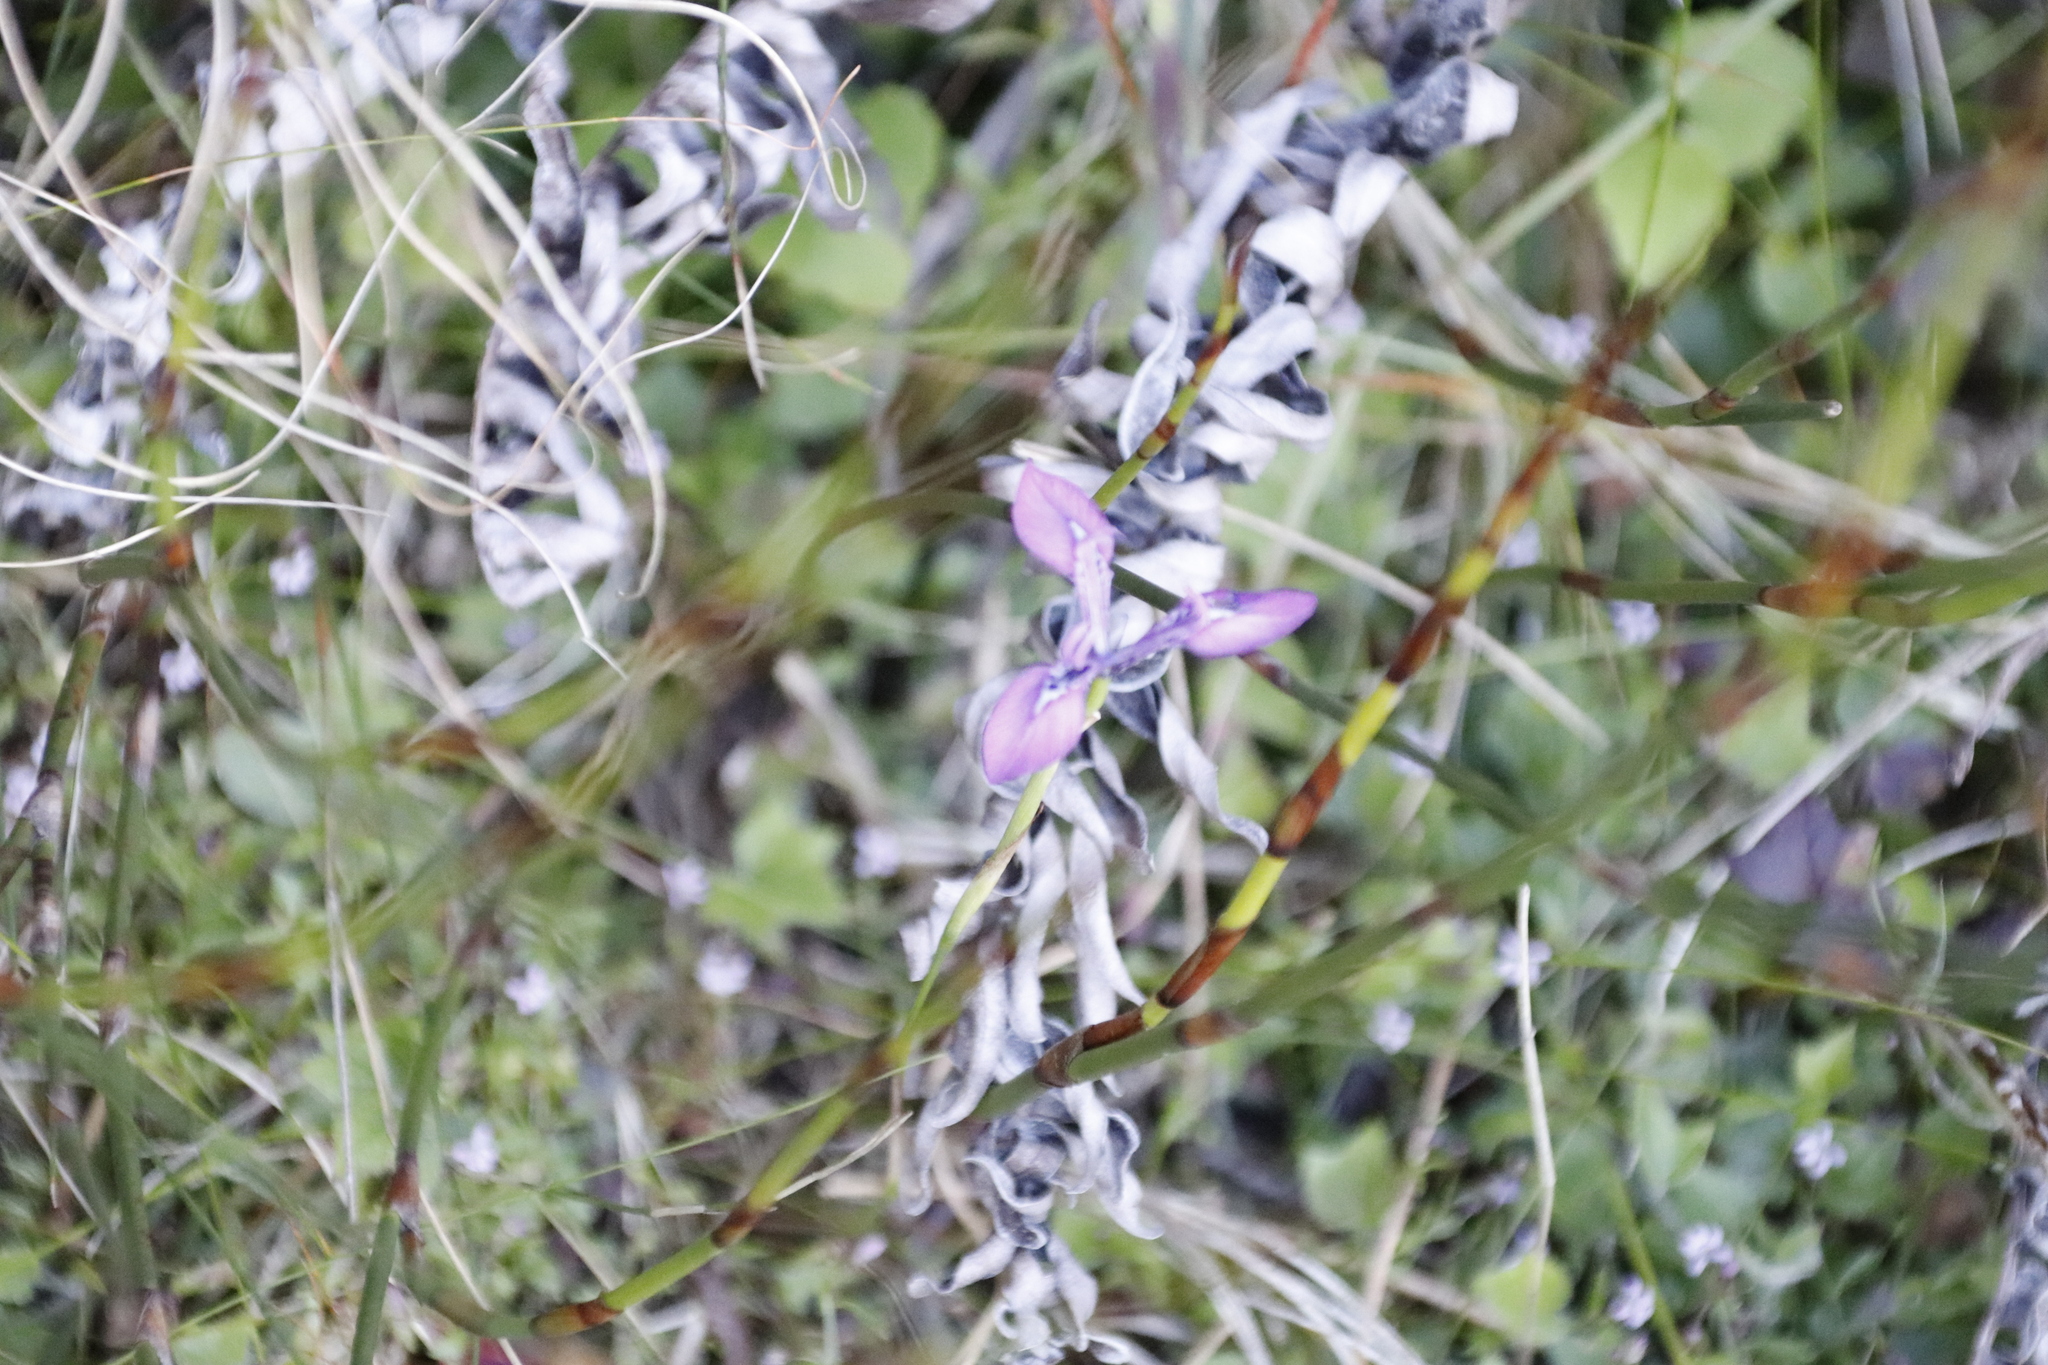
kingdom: Plantae
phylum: Tracheophyta
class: Liliopsida
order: Asparagales
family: Iridaceae
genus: Moraea
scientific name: Moraea tripetala
